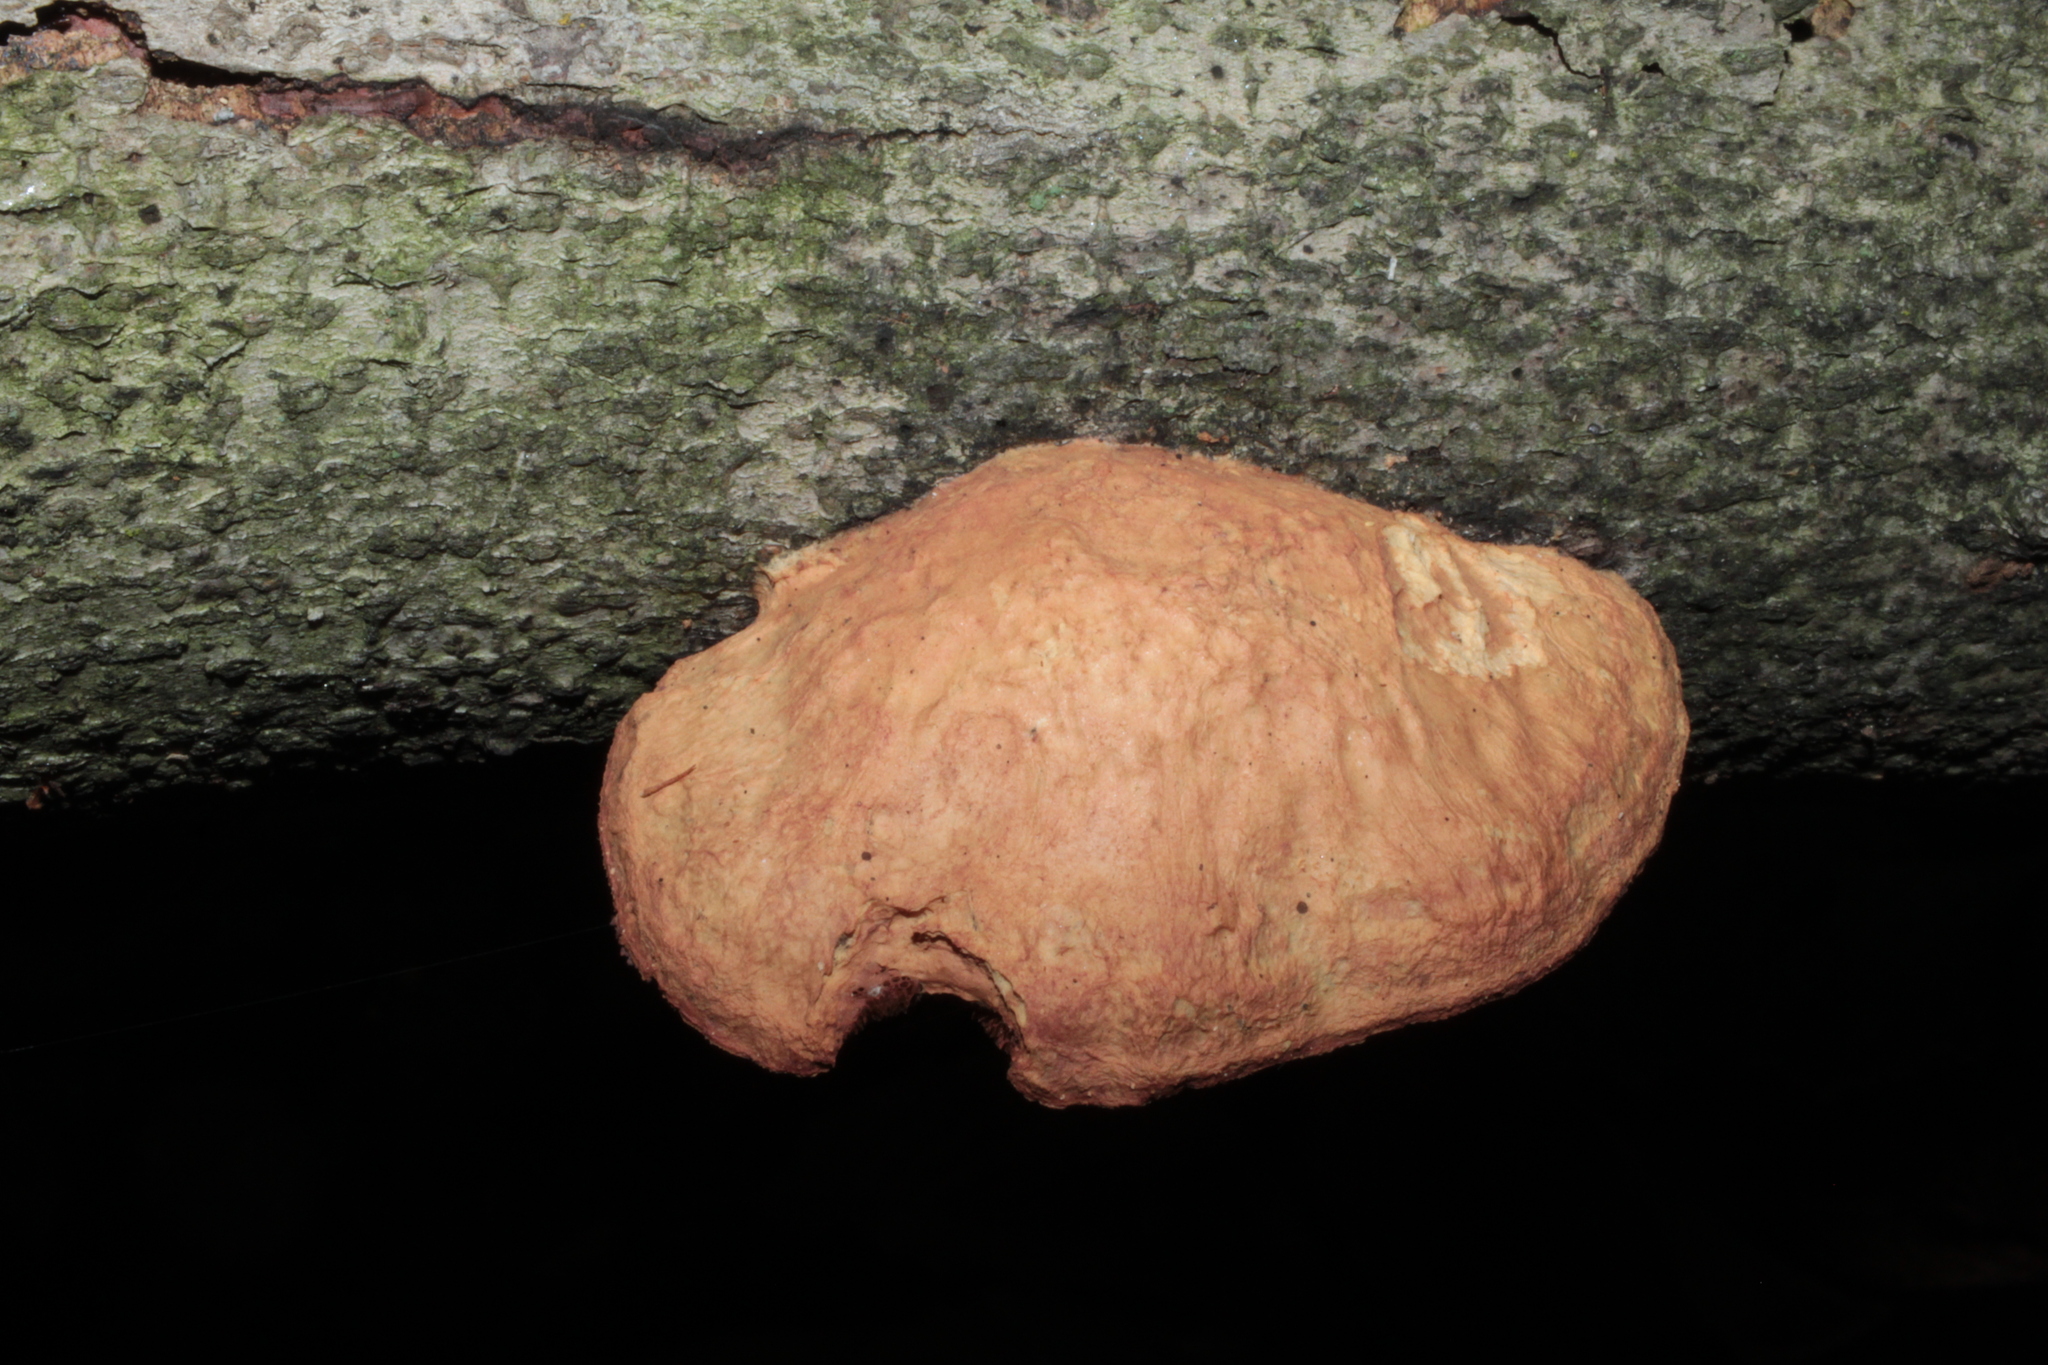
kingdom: Fungi
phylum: Basidiomycota
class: Agaricomycetes
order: Polyporales
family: Phanerochaetaceae
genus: Hapalopilus
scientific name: Hapalopilus rutilans
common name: Tender nesting polypore
